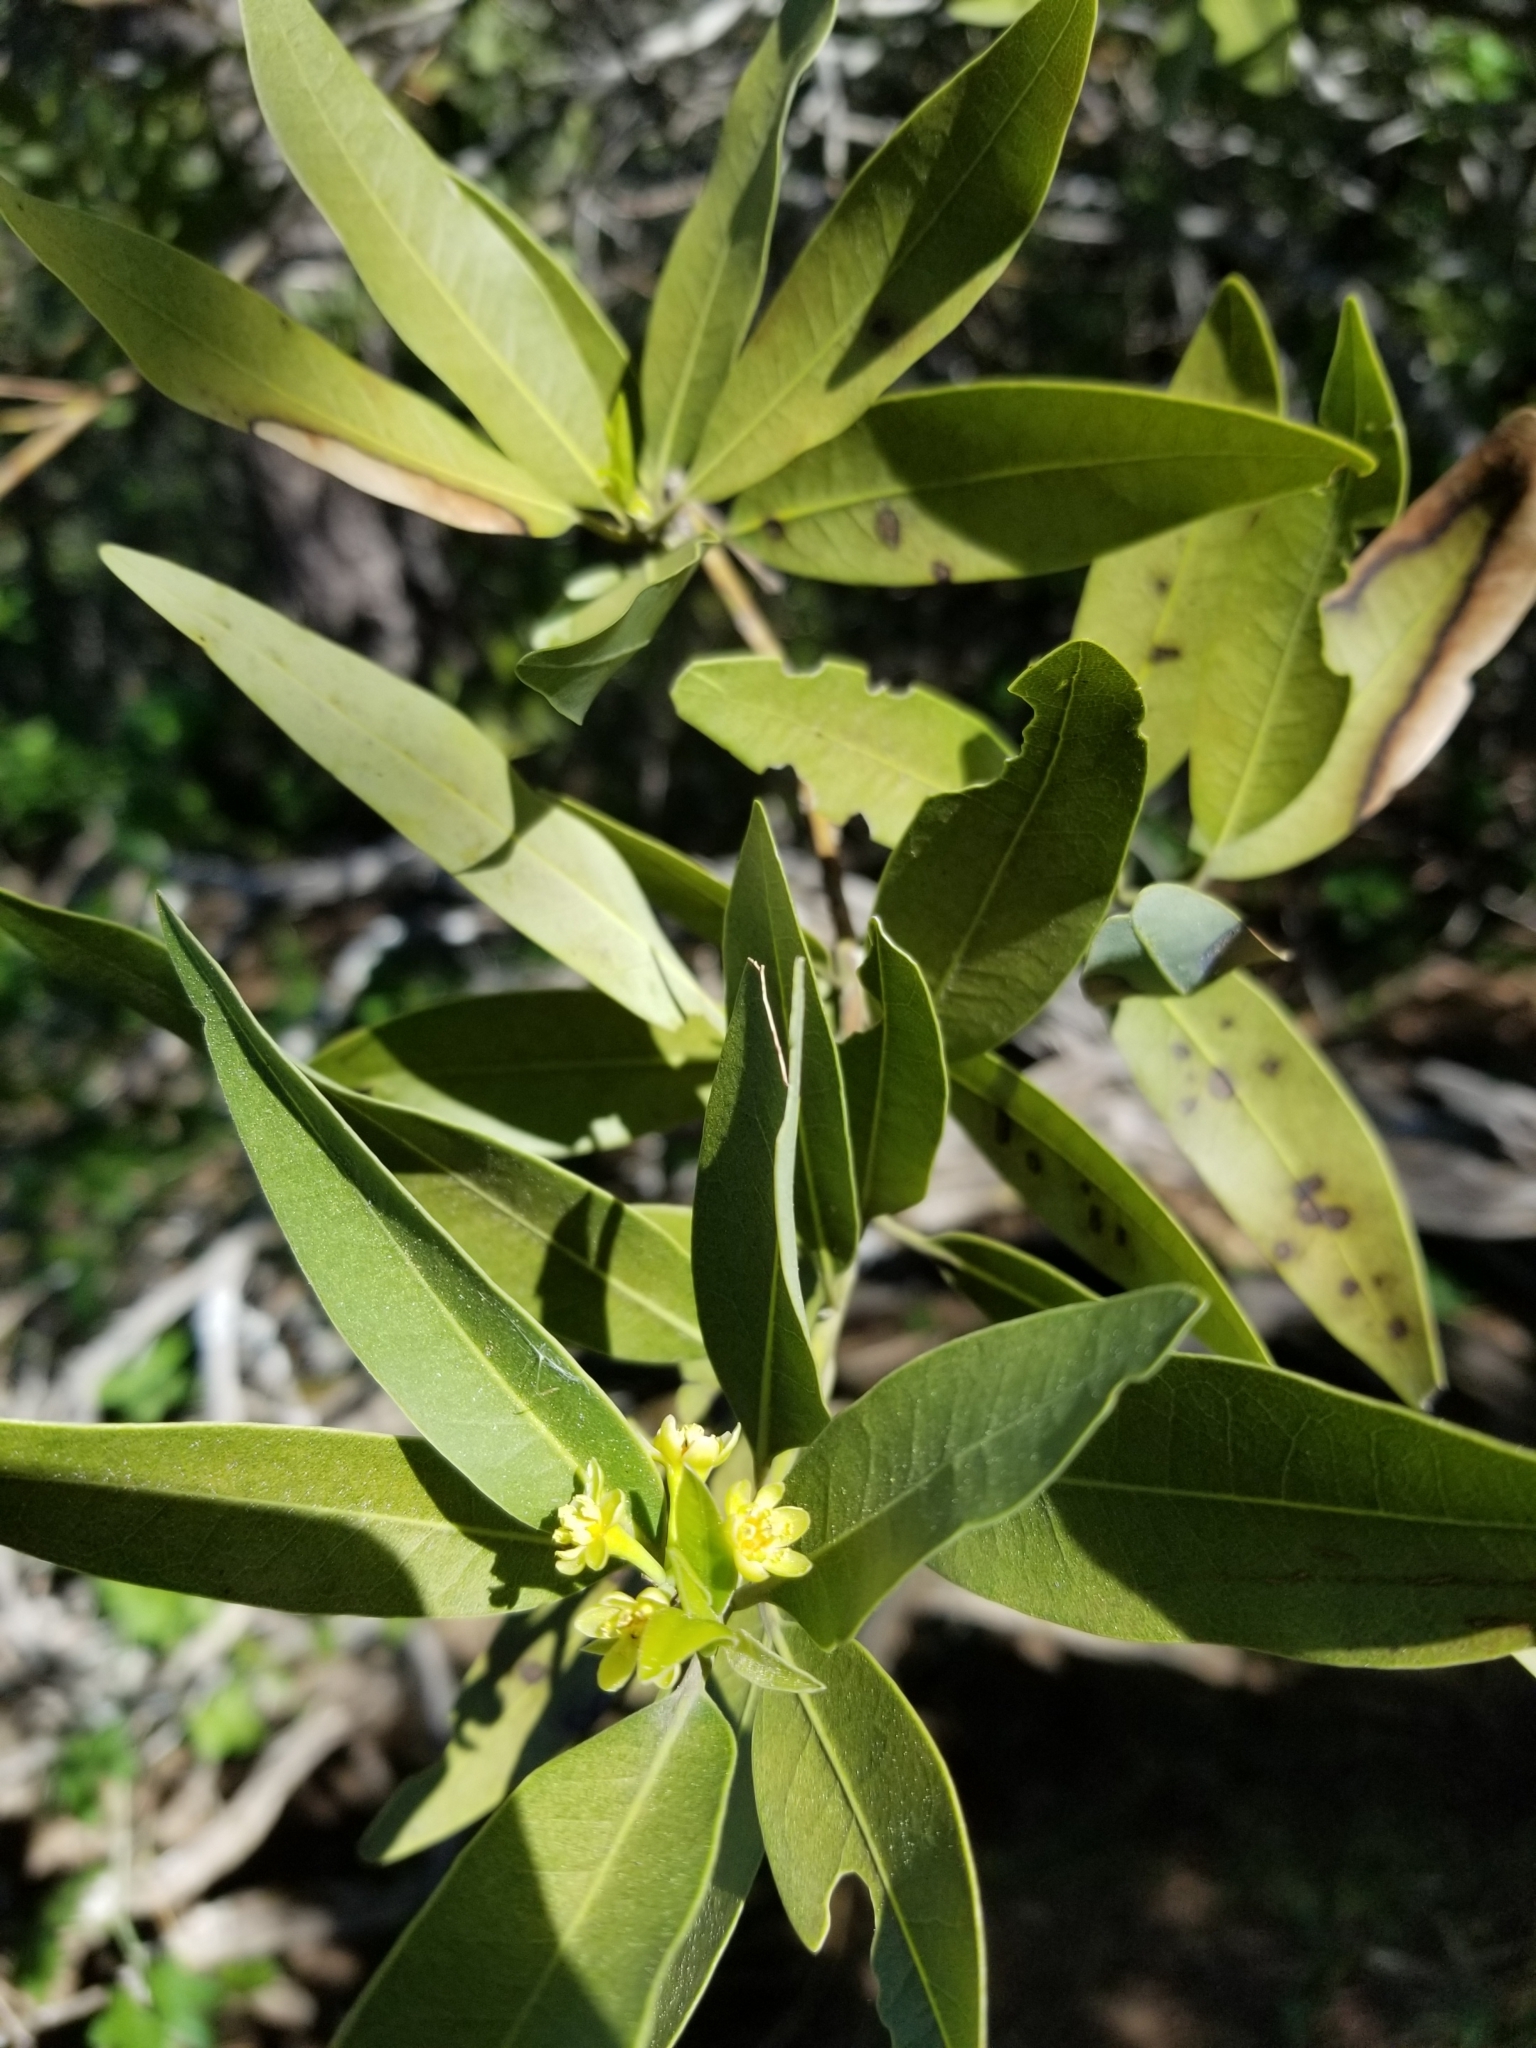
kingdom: Plantae
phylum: Tracheophyta
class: Magnoliopsida
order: Laurales
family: Lauraceae
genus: Umbellularia
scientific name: Umbellularia californica
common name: California bay
